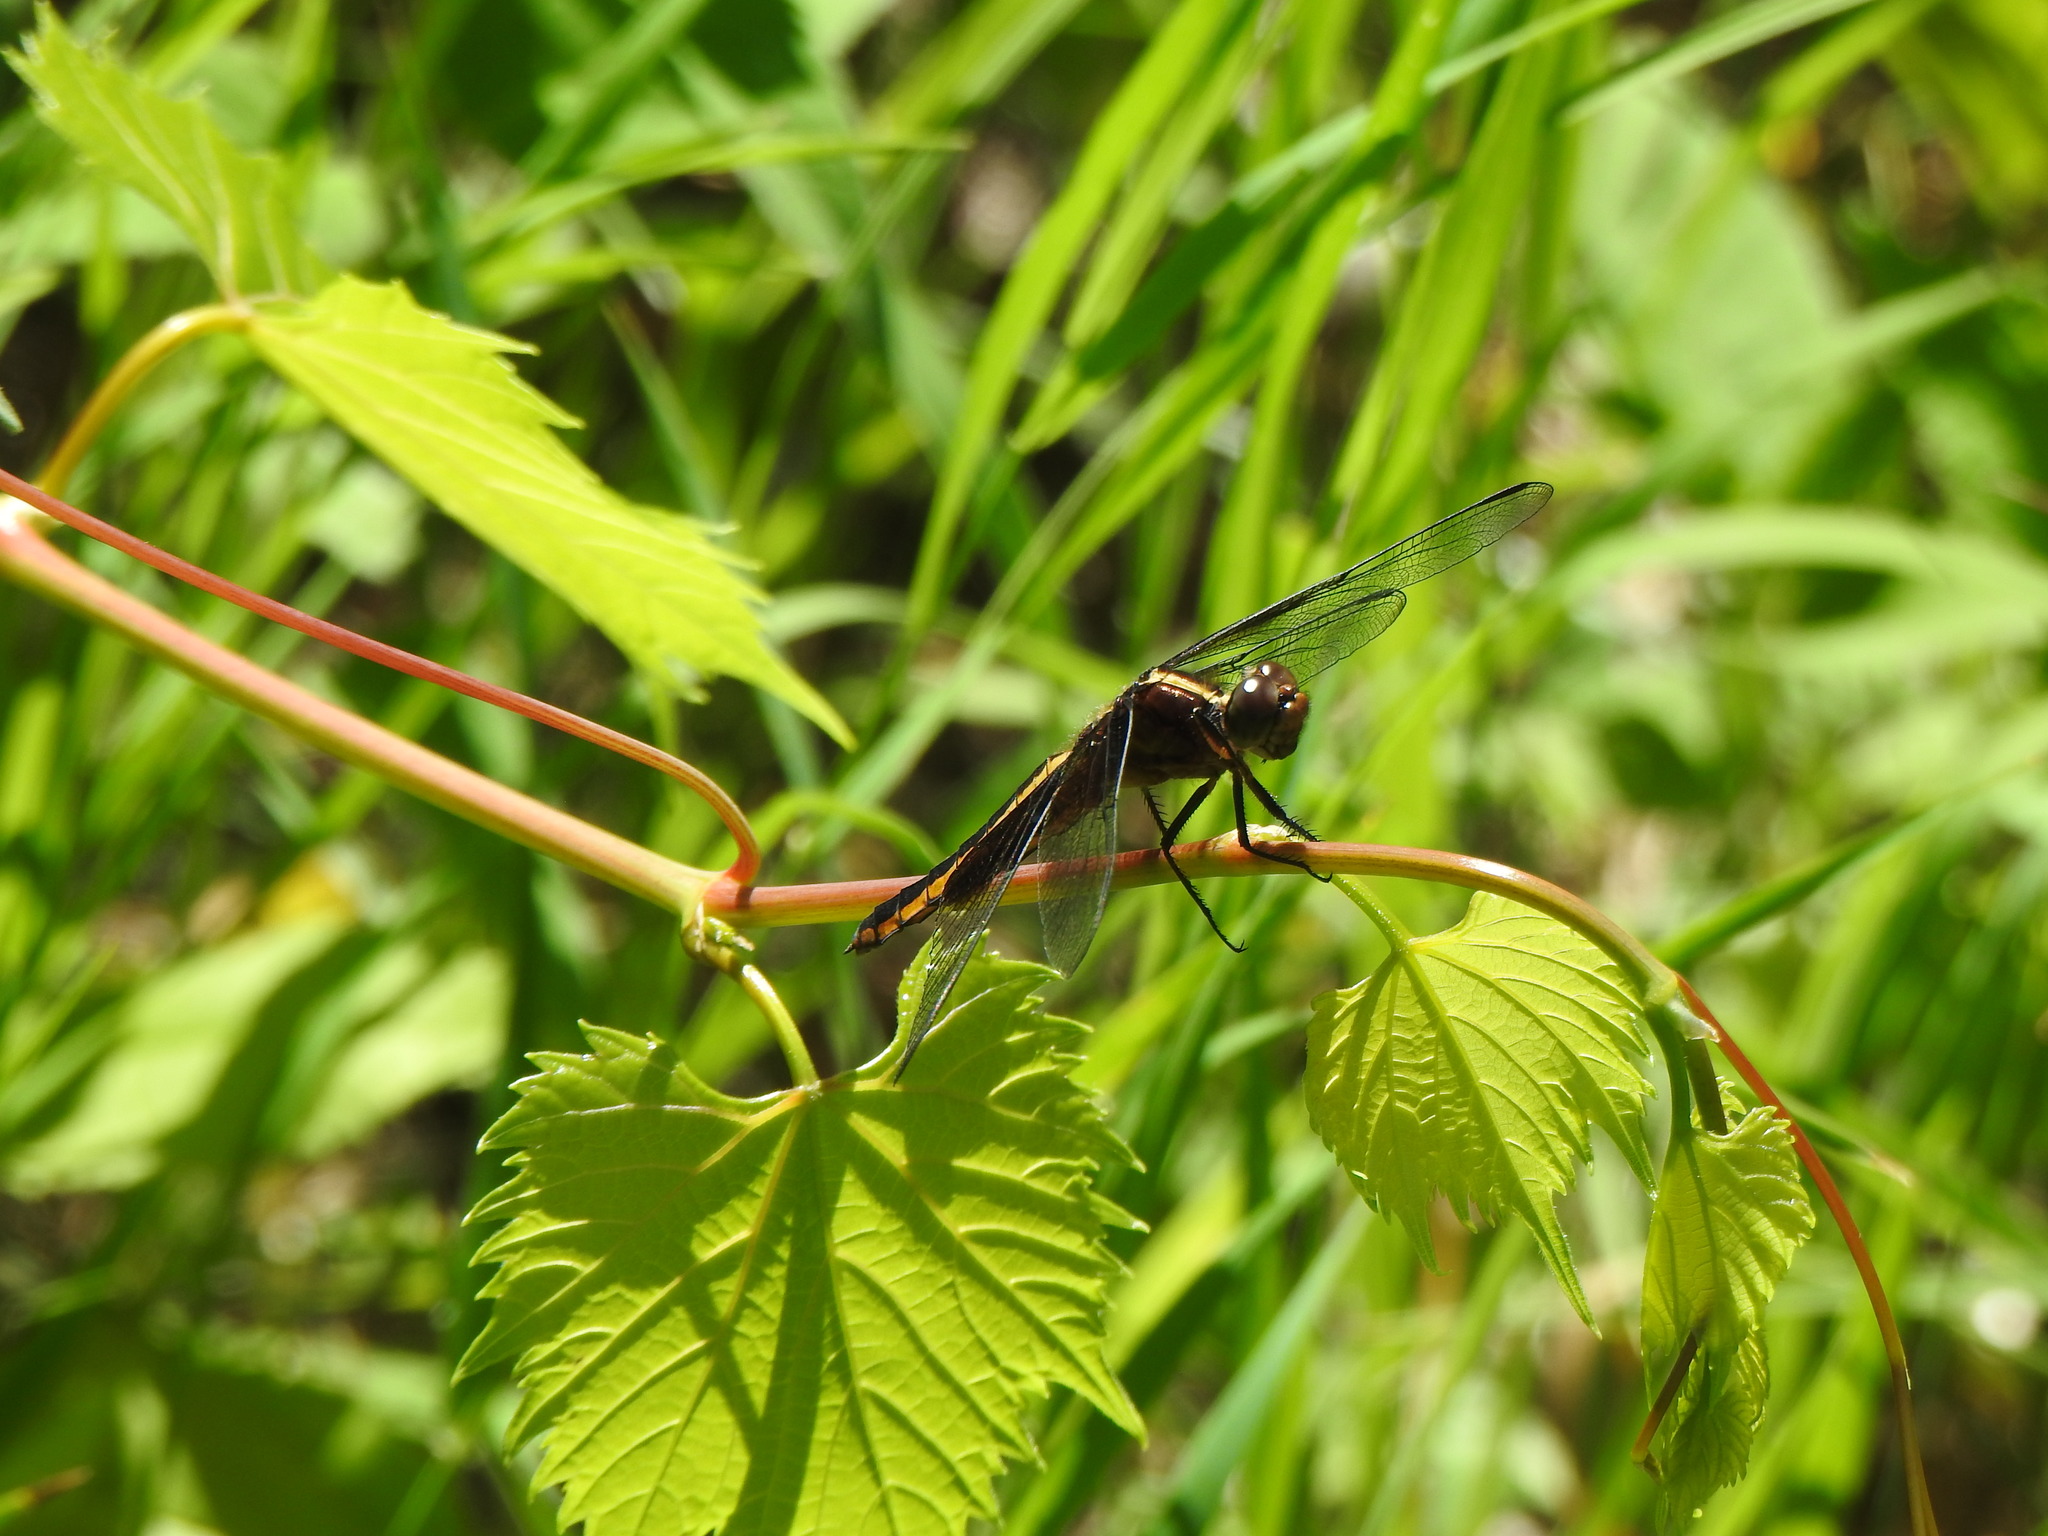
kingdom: Animalia
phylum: Arthropoda
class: Insecta
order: Odonata
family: Libellulidae
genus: Libellula
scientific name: Libellula luctuosa
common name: Widow skimmer
